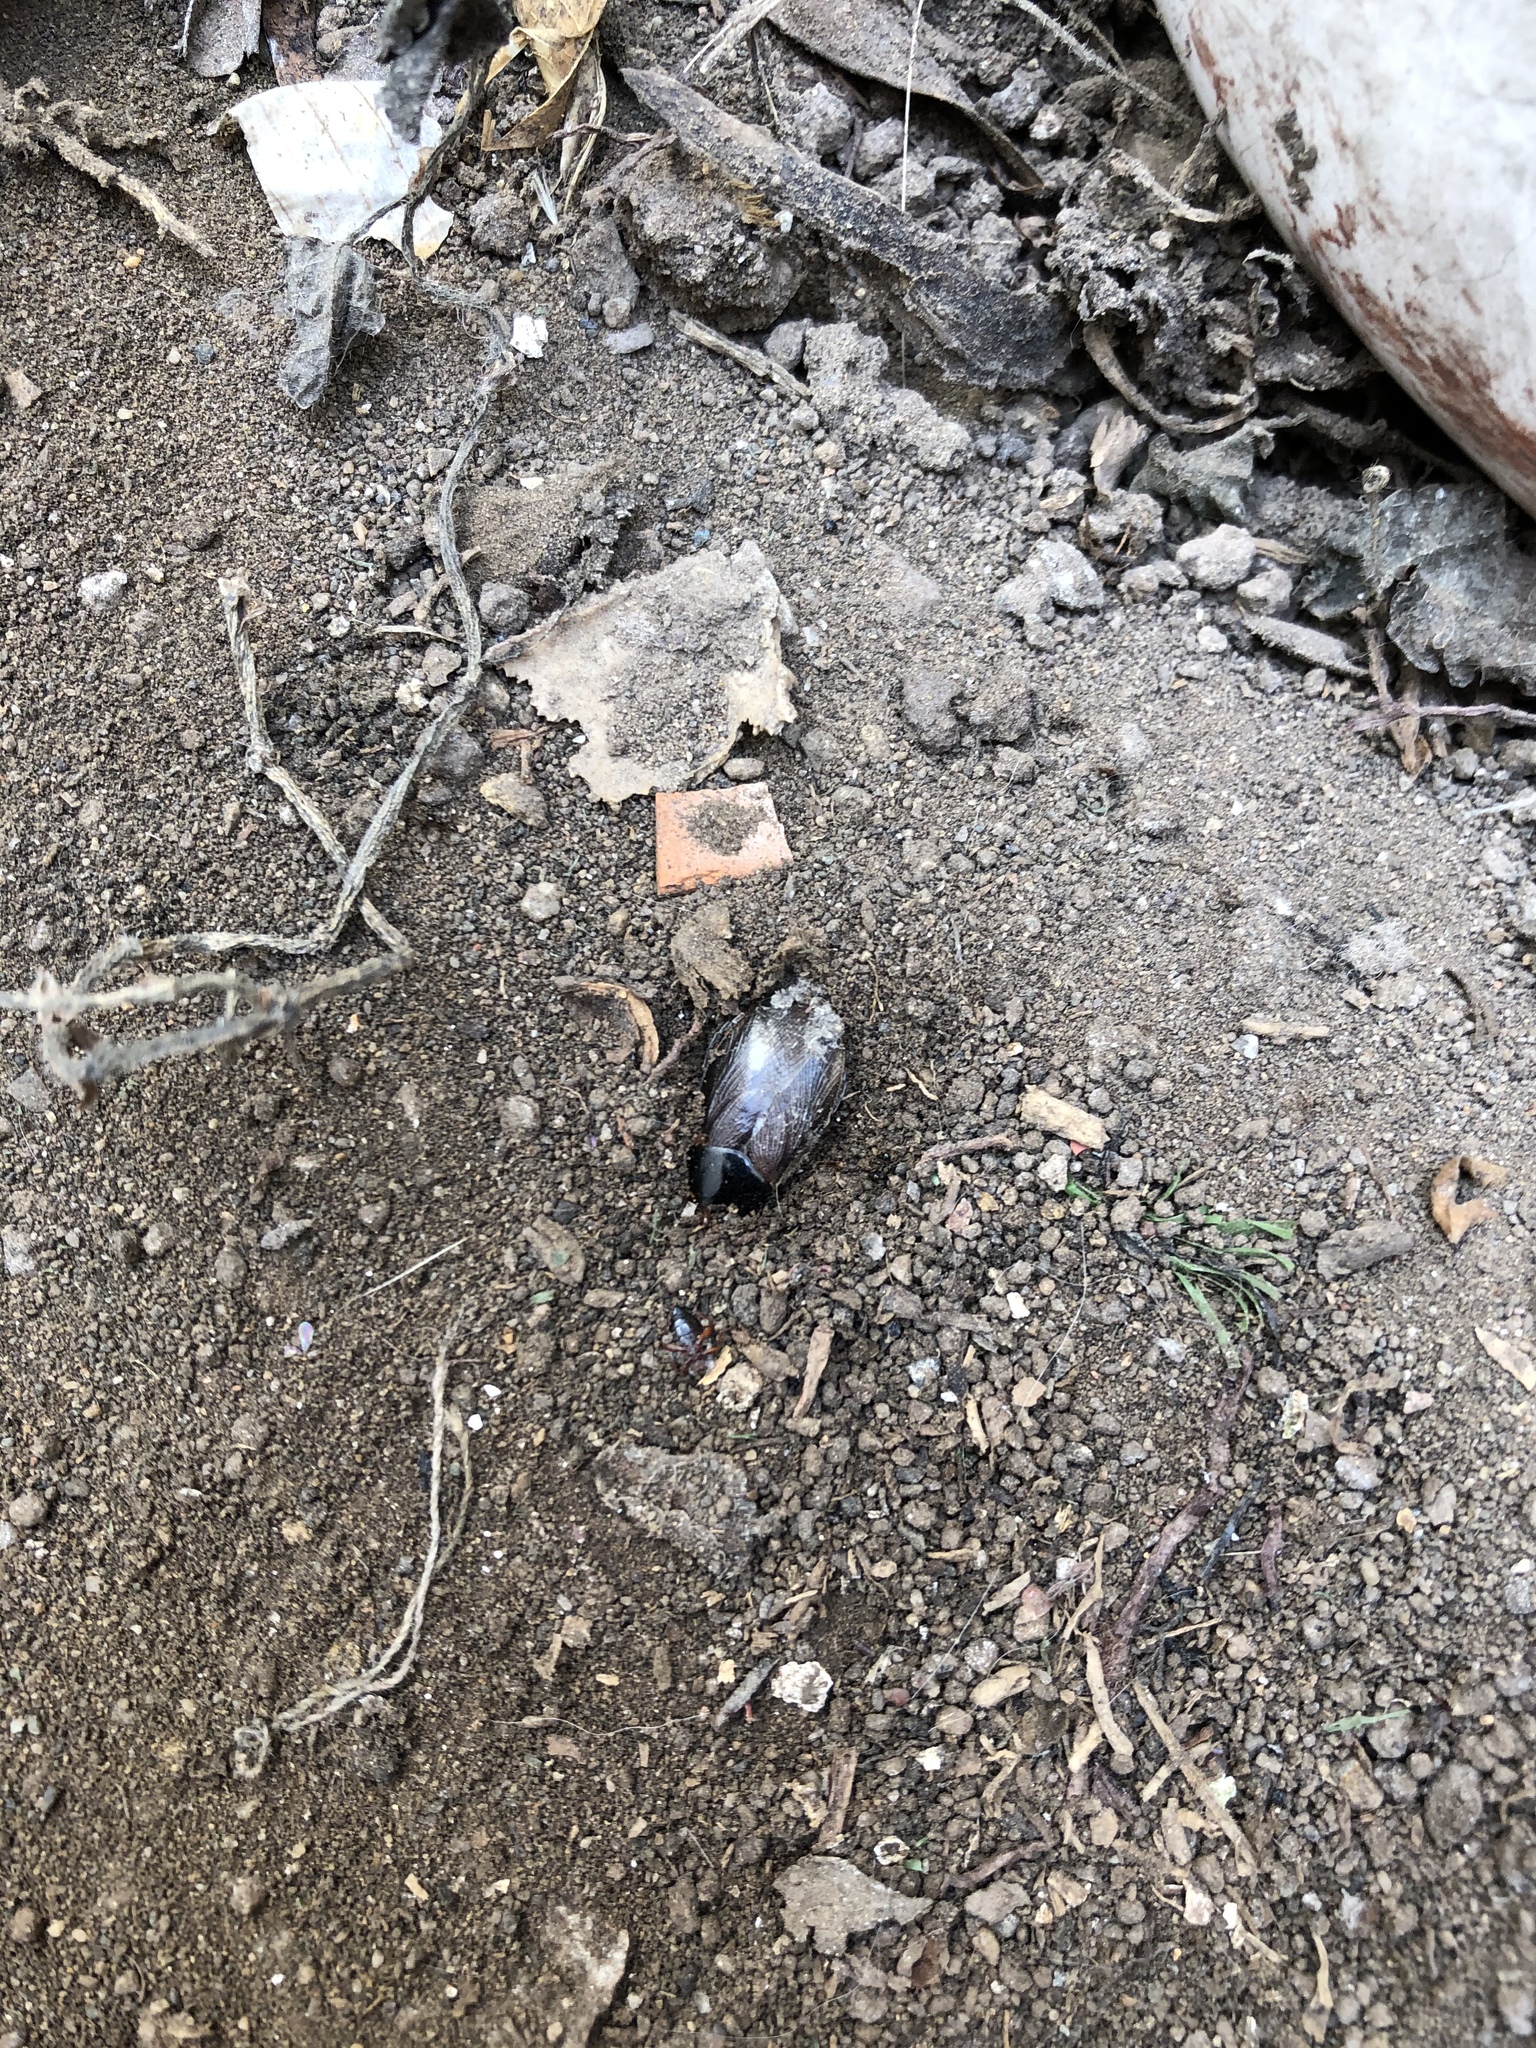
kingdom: Animalia
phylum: Arthropoda
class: Insecta
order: Blattodea
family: Blaberidae
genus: Pycnoscelus
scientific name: Pycnoscelus surinamensis
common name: Surinam cockroach
